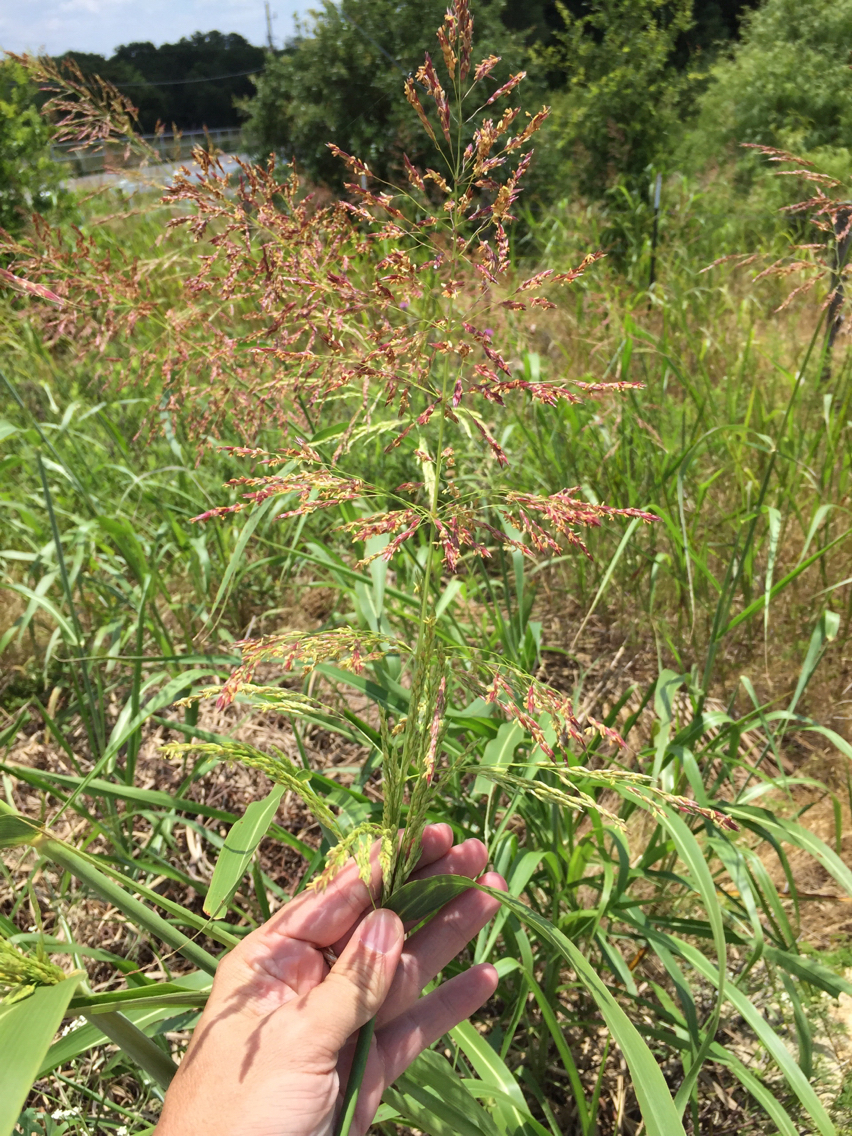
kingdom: Plantae
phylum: Tracheophyta
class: Liliopsida
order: Poales
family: Poaceae
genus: Sorghum
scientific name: Sorghum halepense
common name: Johnson-grass
